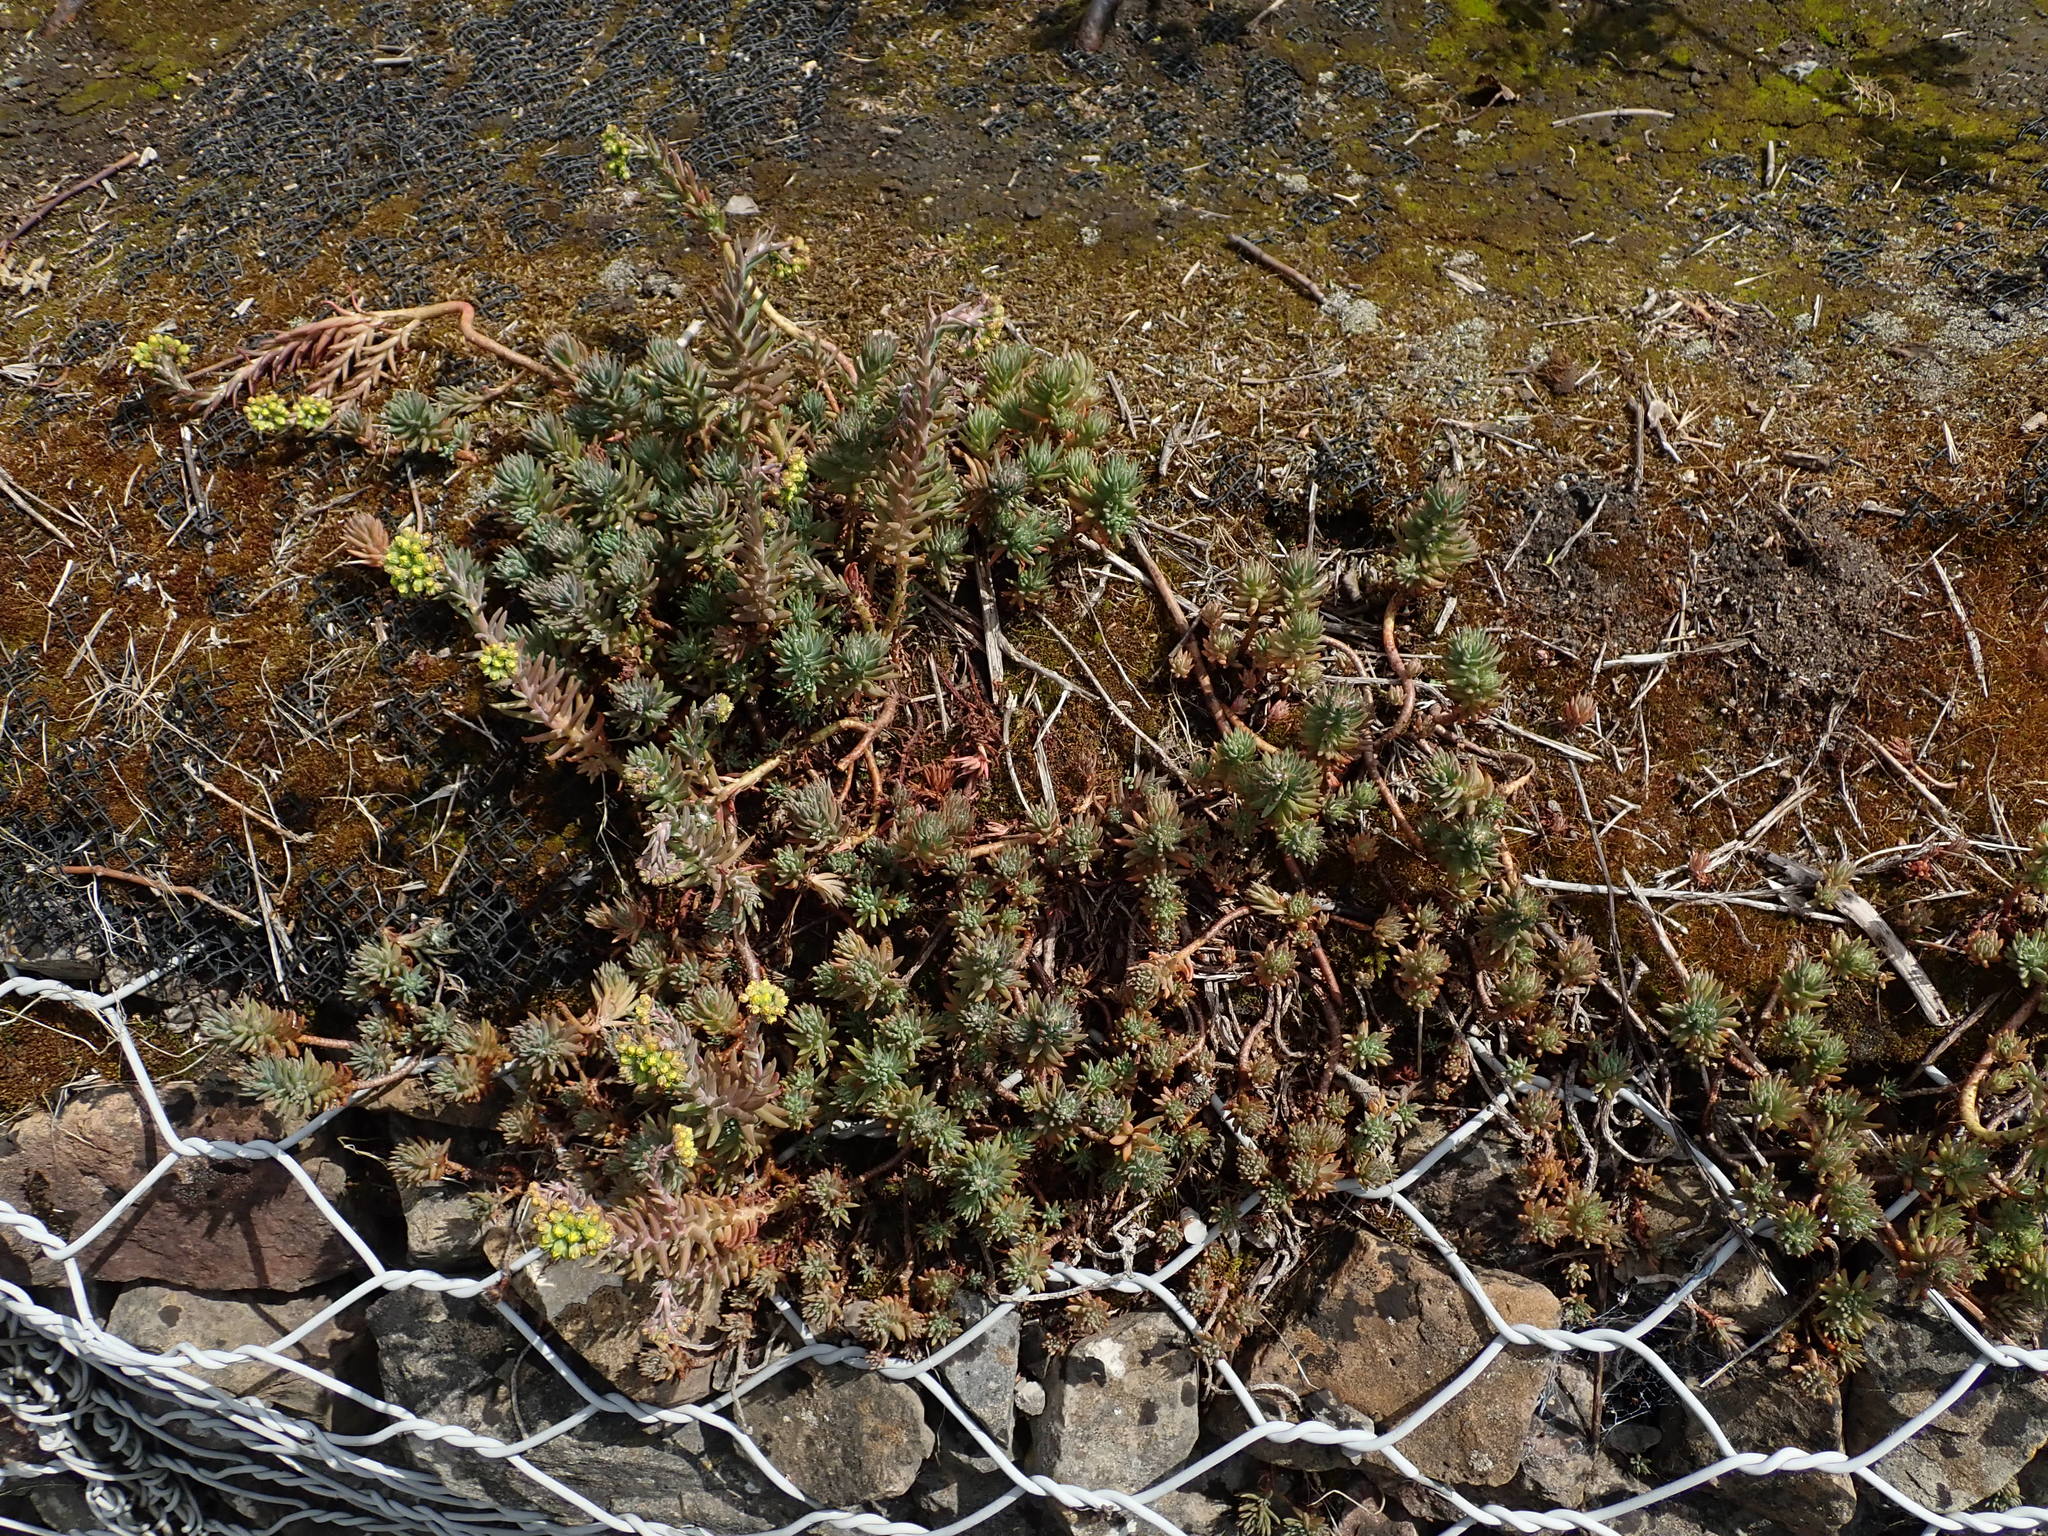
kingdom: Plantae
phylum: Tracheophyta
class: Magnoliopsida
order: Saxifragales
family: Crassulaceae
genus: Petrosedum
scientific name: Petrosedum rupestre
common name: Jenny's stonecrop
